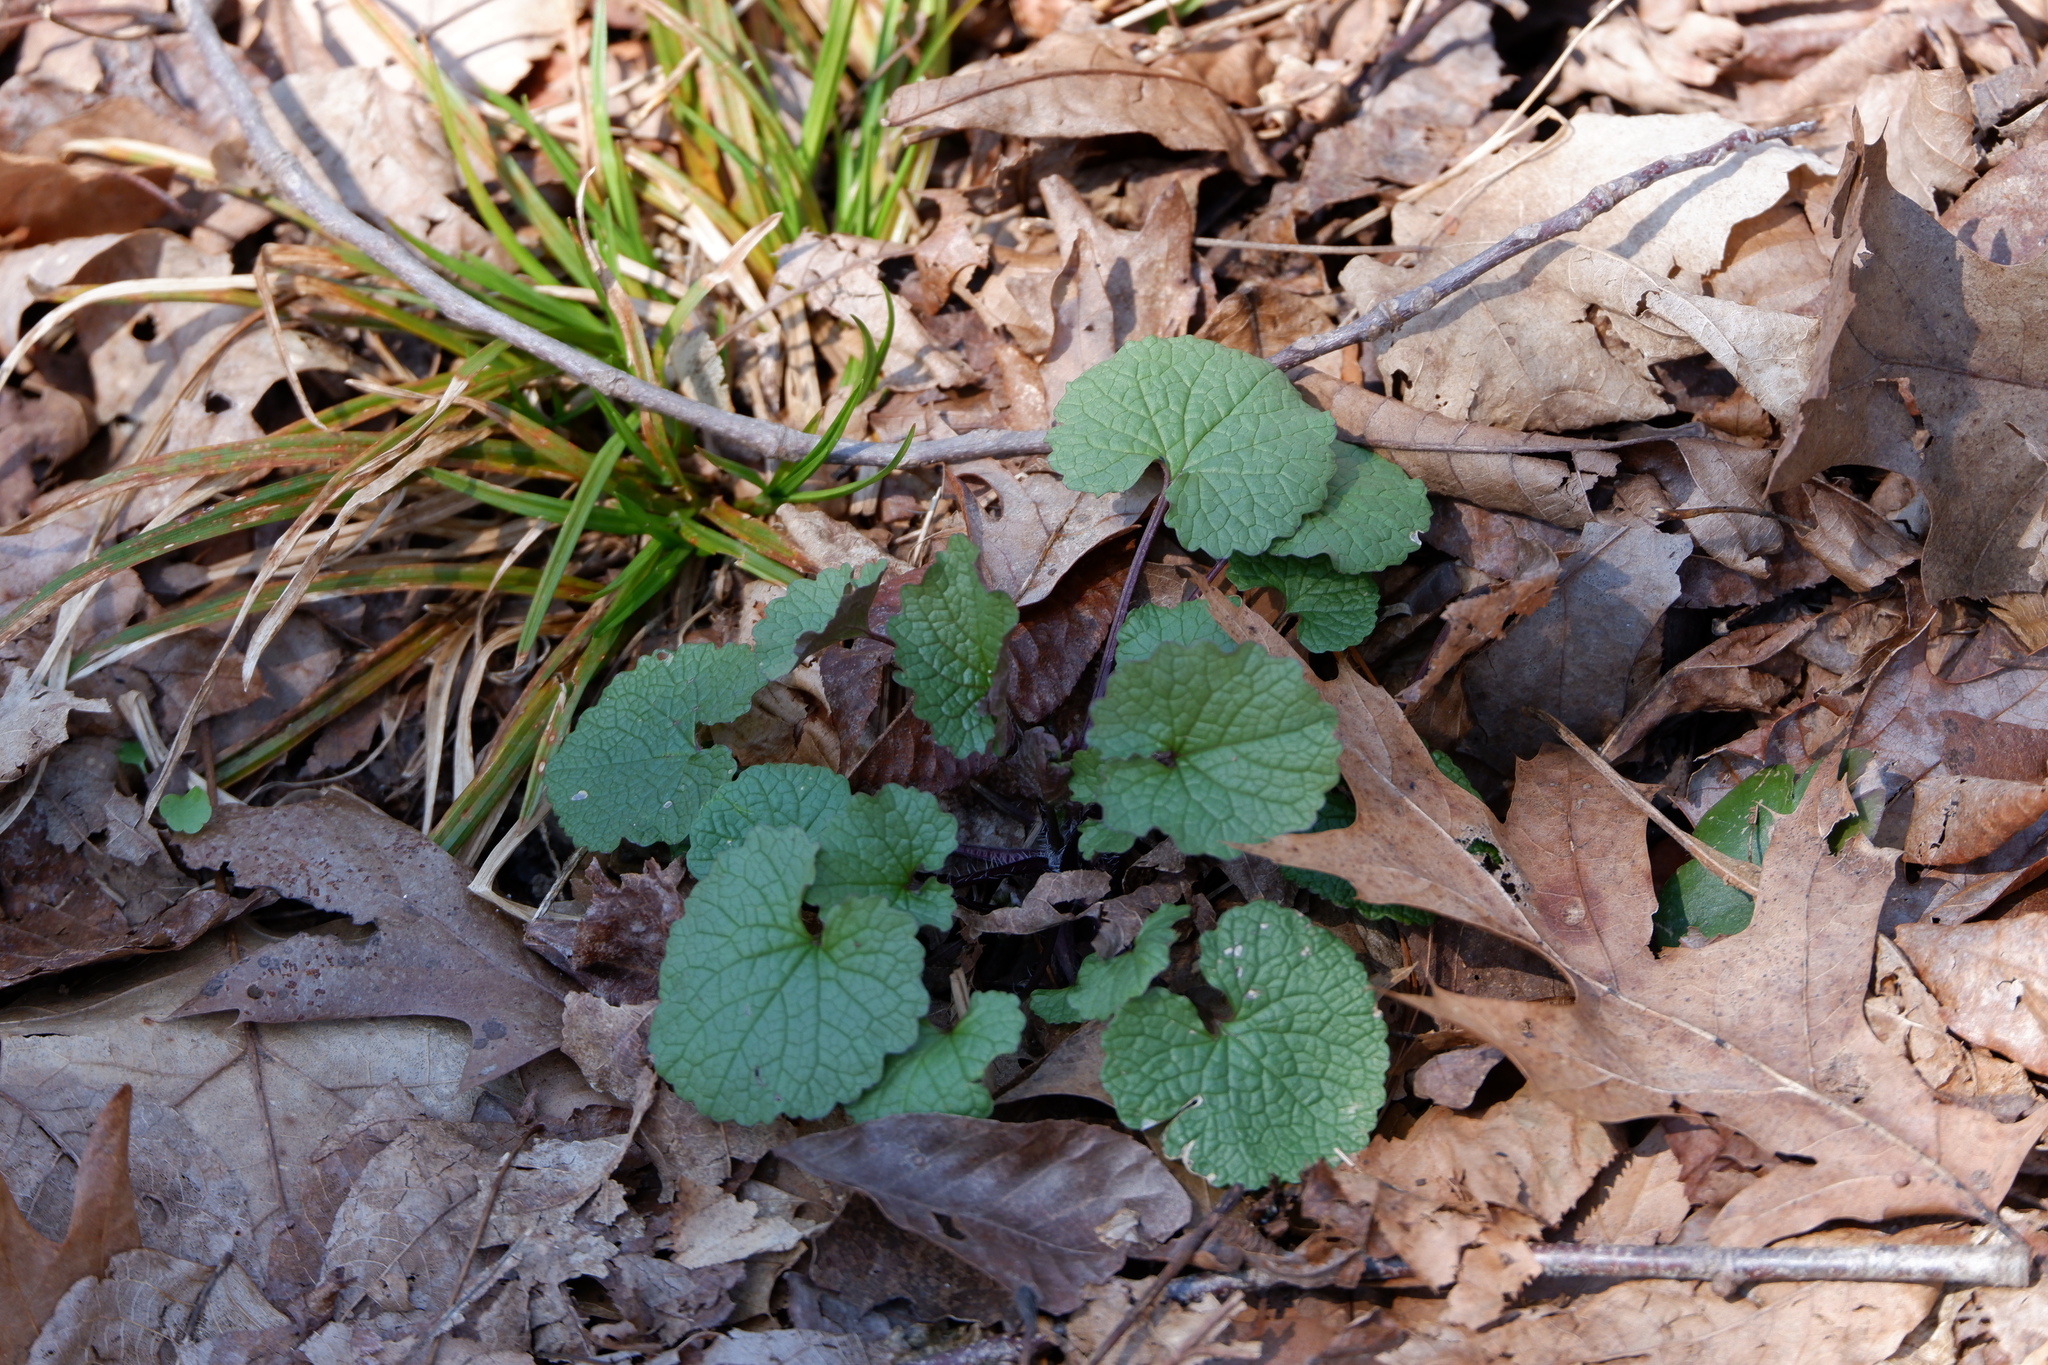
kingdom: Plantae
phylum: Tracheophyta
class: Magnoliopsida
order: Brassicales
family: Brassicaceae
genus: Alliaria
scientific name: Alliaria petiolata
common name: Garlic mustard
